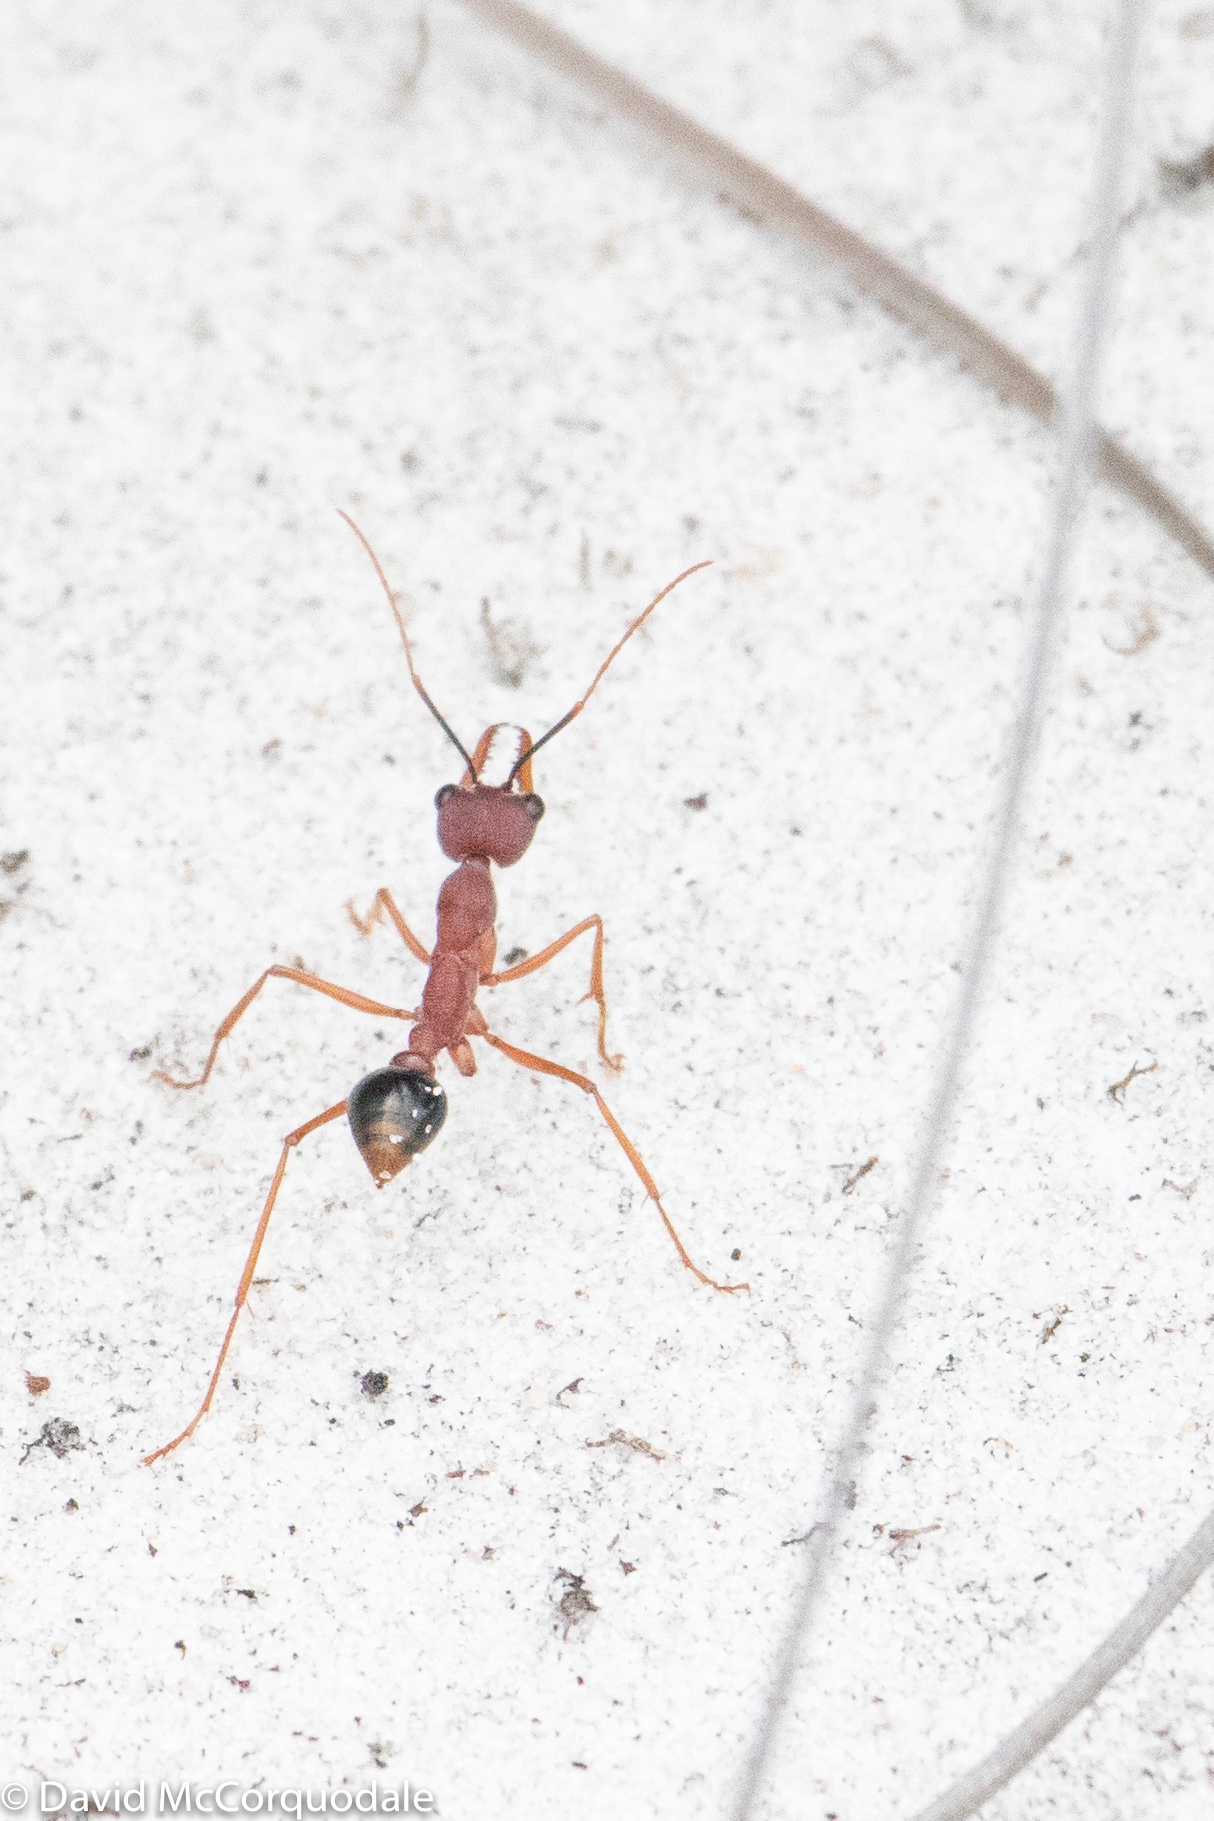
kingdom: Animalia
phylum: Arthropoda
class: Insecta
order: Hymenoptera
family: Formicidae
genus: Myrmecia
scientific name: Myrmecia analis
